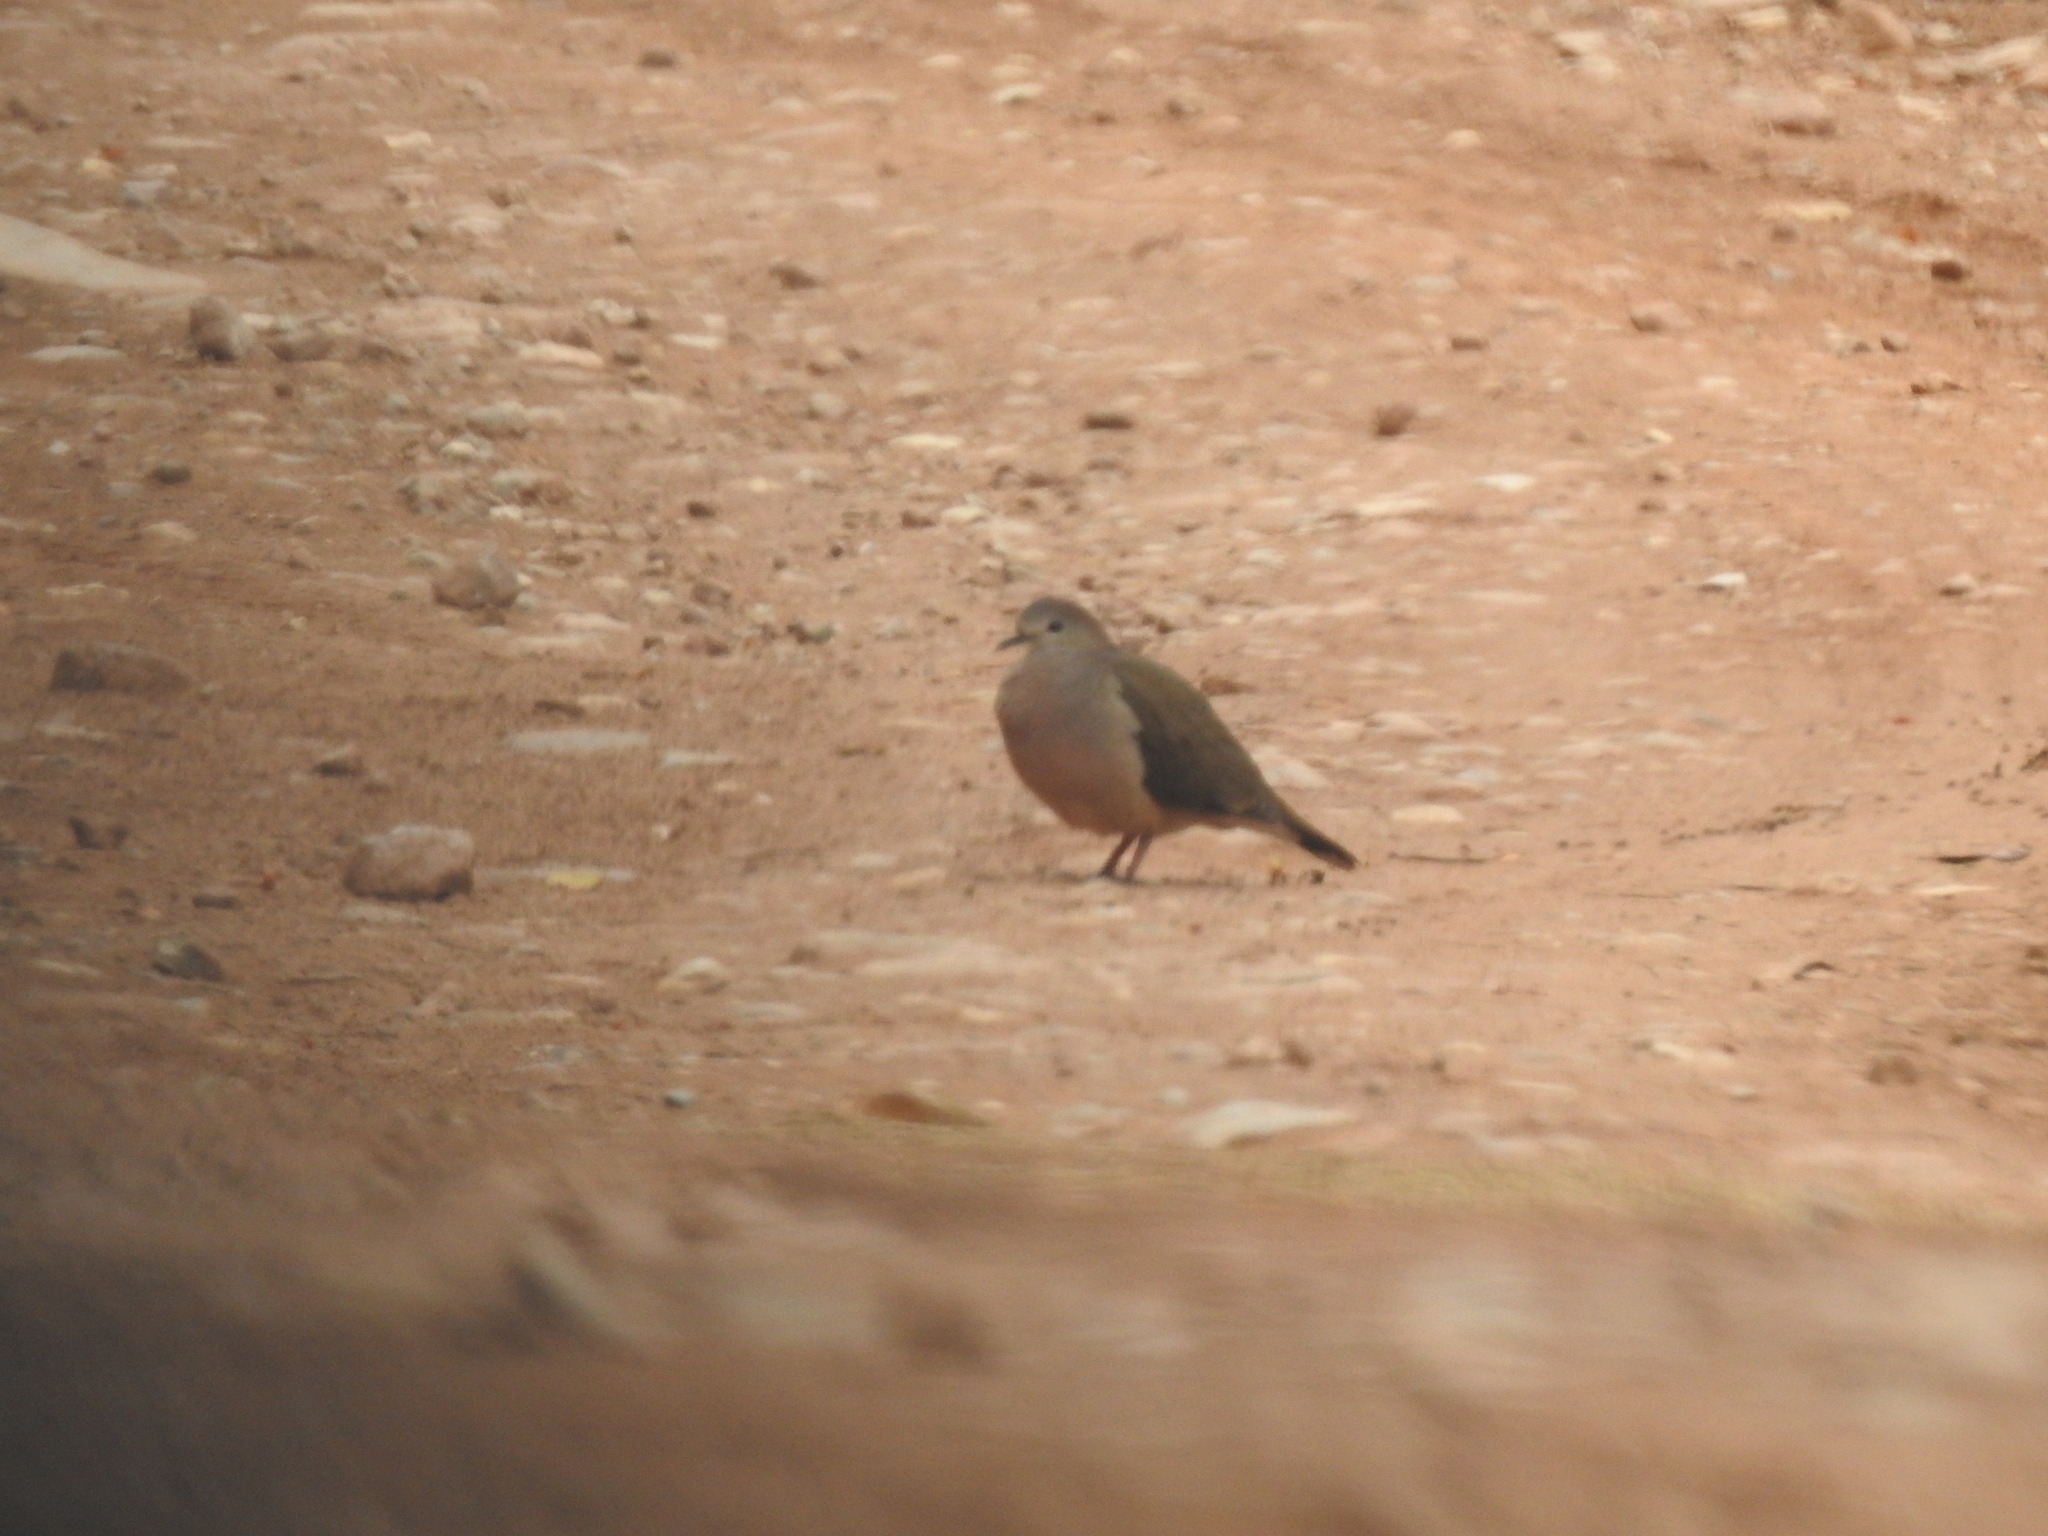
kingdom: Animalia
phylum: Chordata
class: Aves
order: Columbiformes
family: Columbidae
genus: Leptotila
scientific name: Leptotila verreauxi
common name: White-tipped dove
